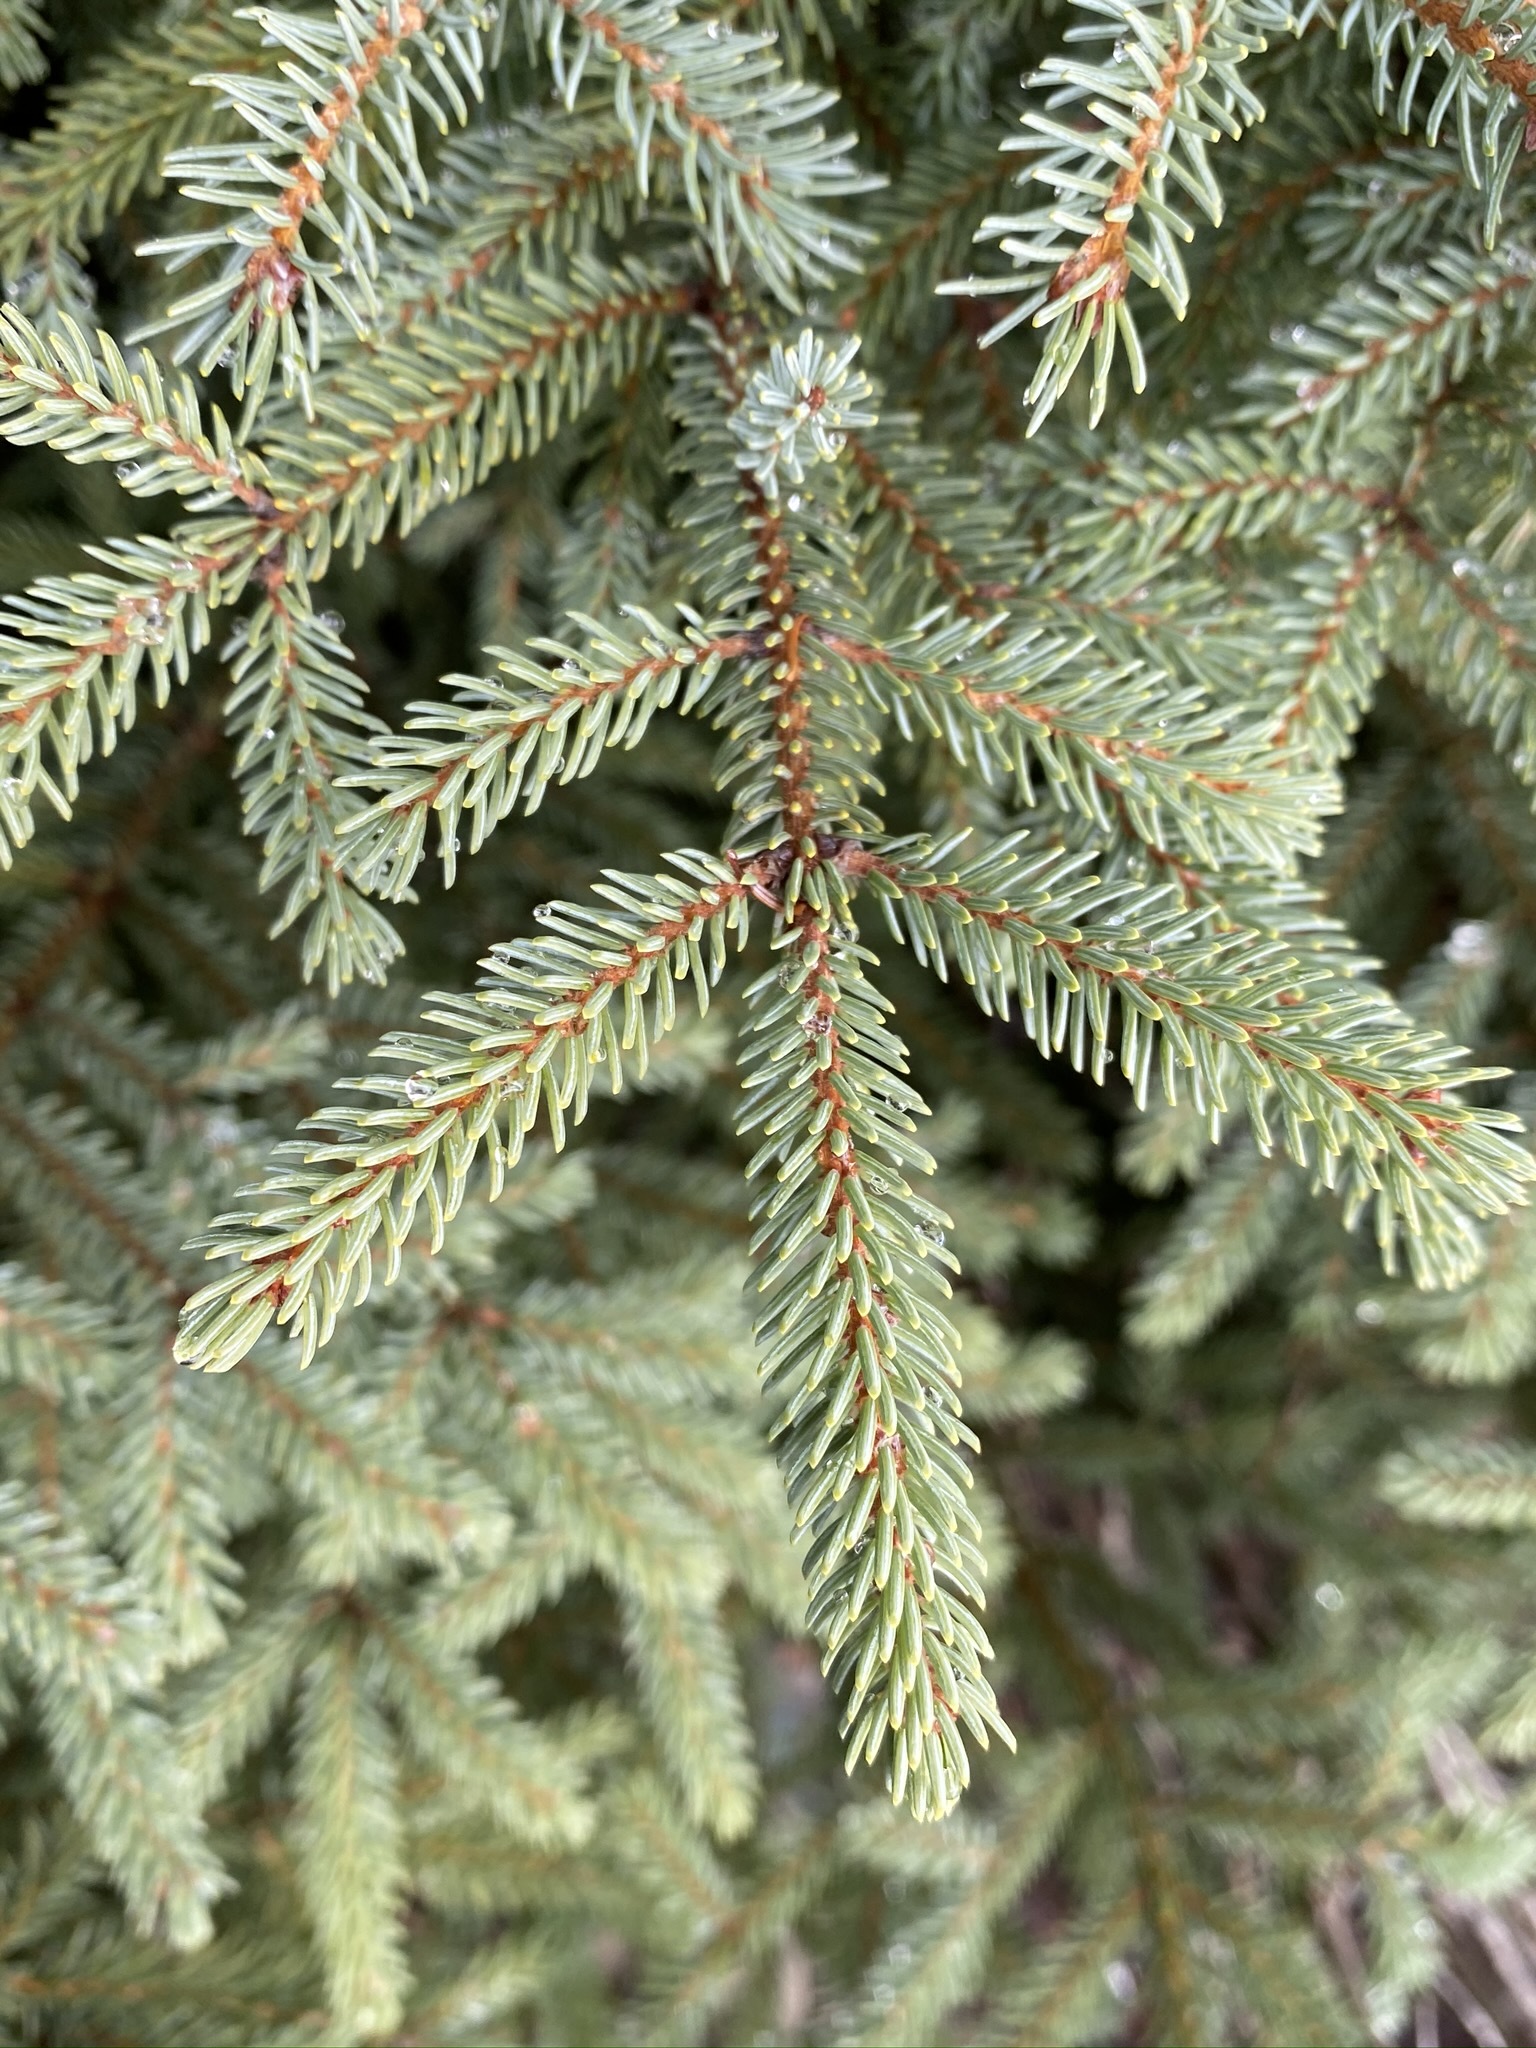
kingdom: Plantae
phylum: Tracheophyta
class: Pinopsida
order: Pinales
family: Pinaceae
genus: Picea
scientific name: Picea mariana
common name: Black spruce
